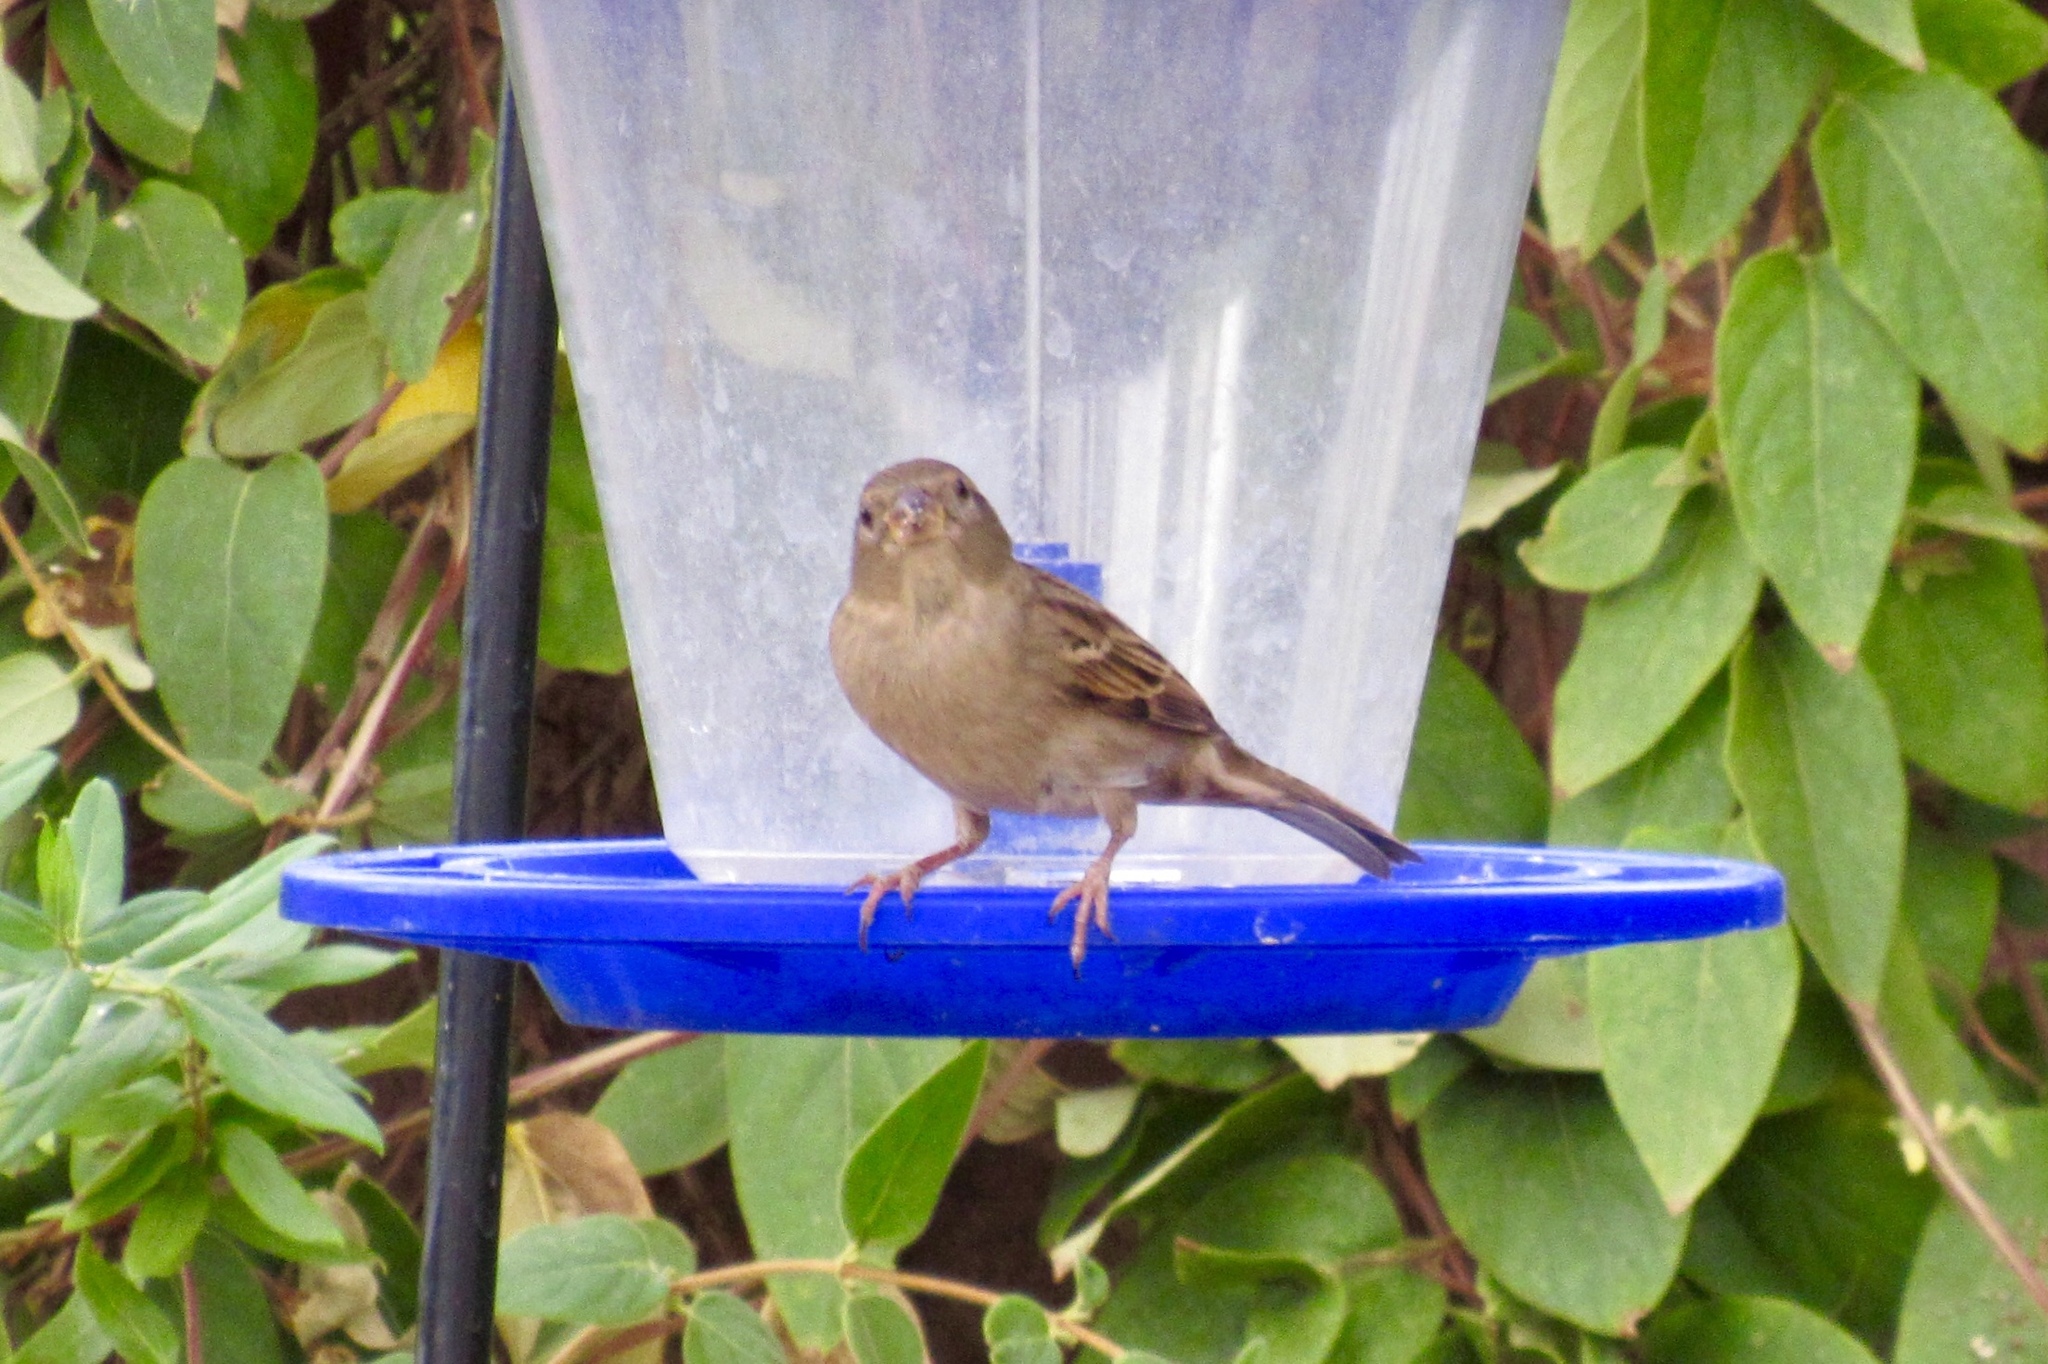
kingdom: Animalia
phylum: Chordata
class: Aves
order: Passeriformes
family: Passeridae
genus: Passer
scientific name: Passer domesticus
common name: House sparrow
